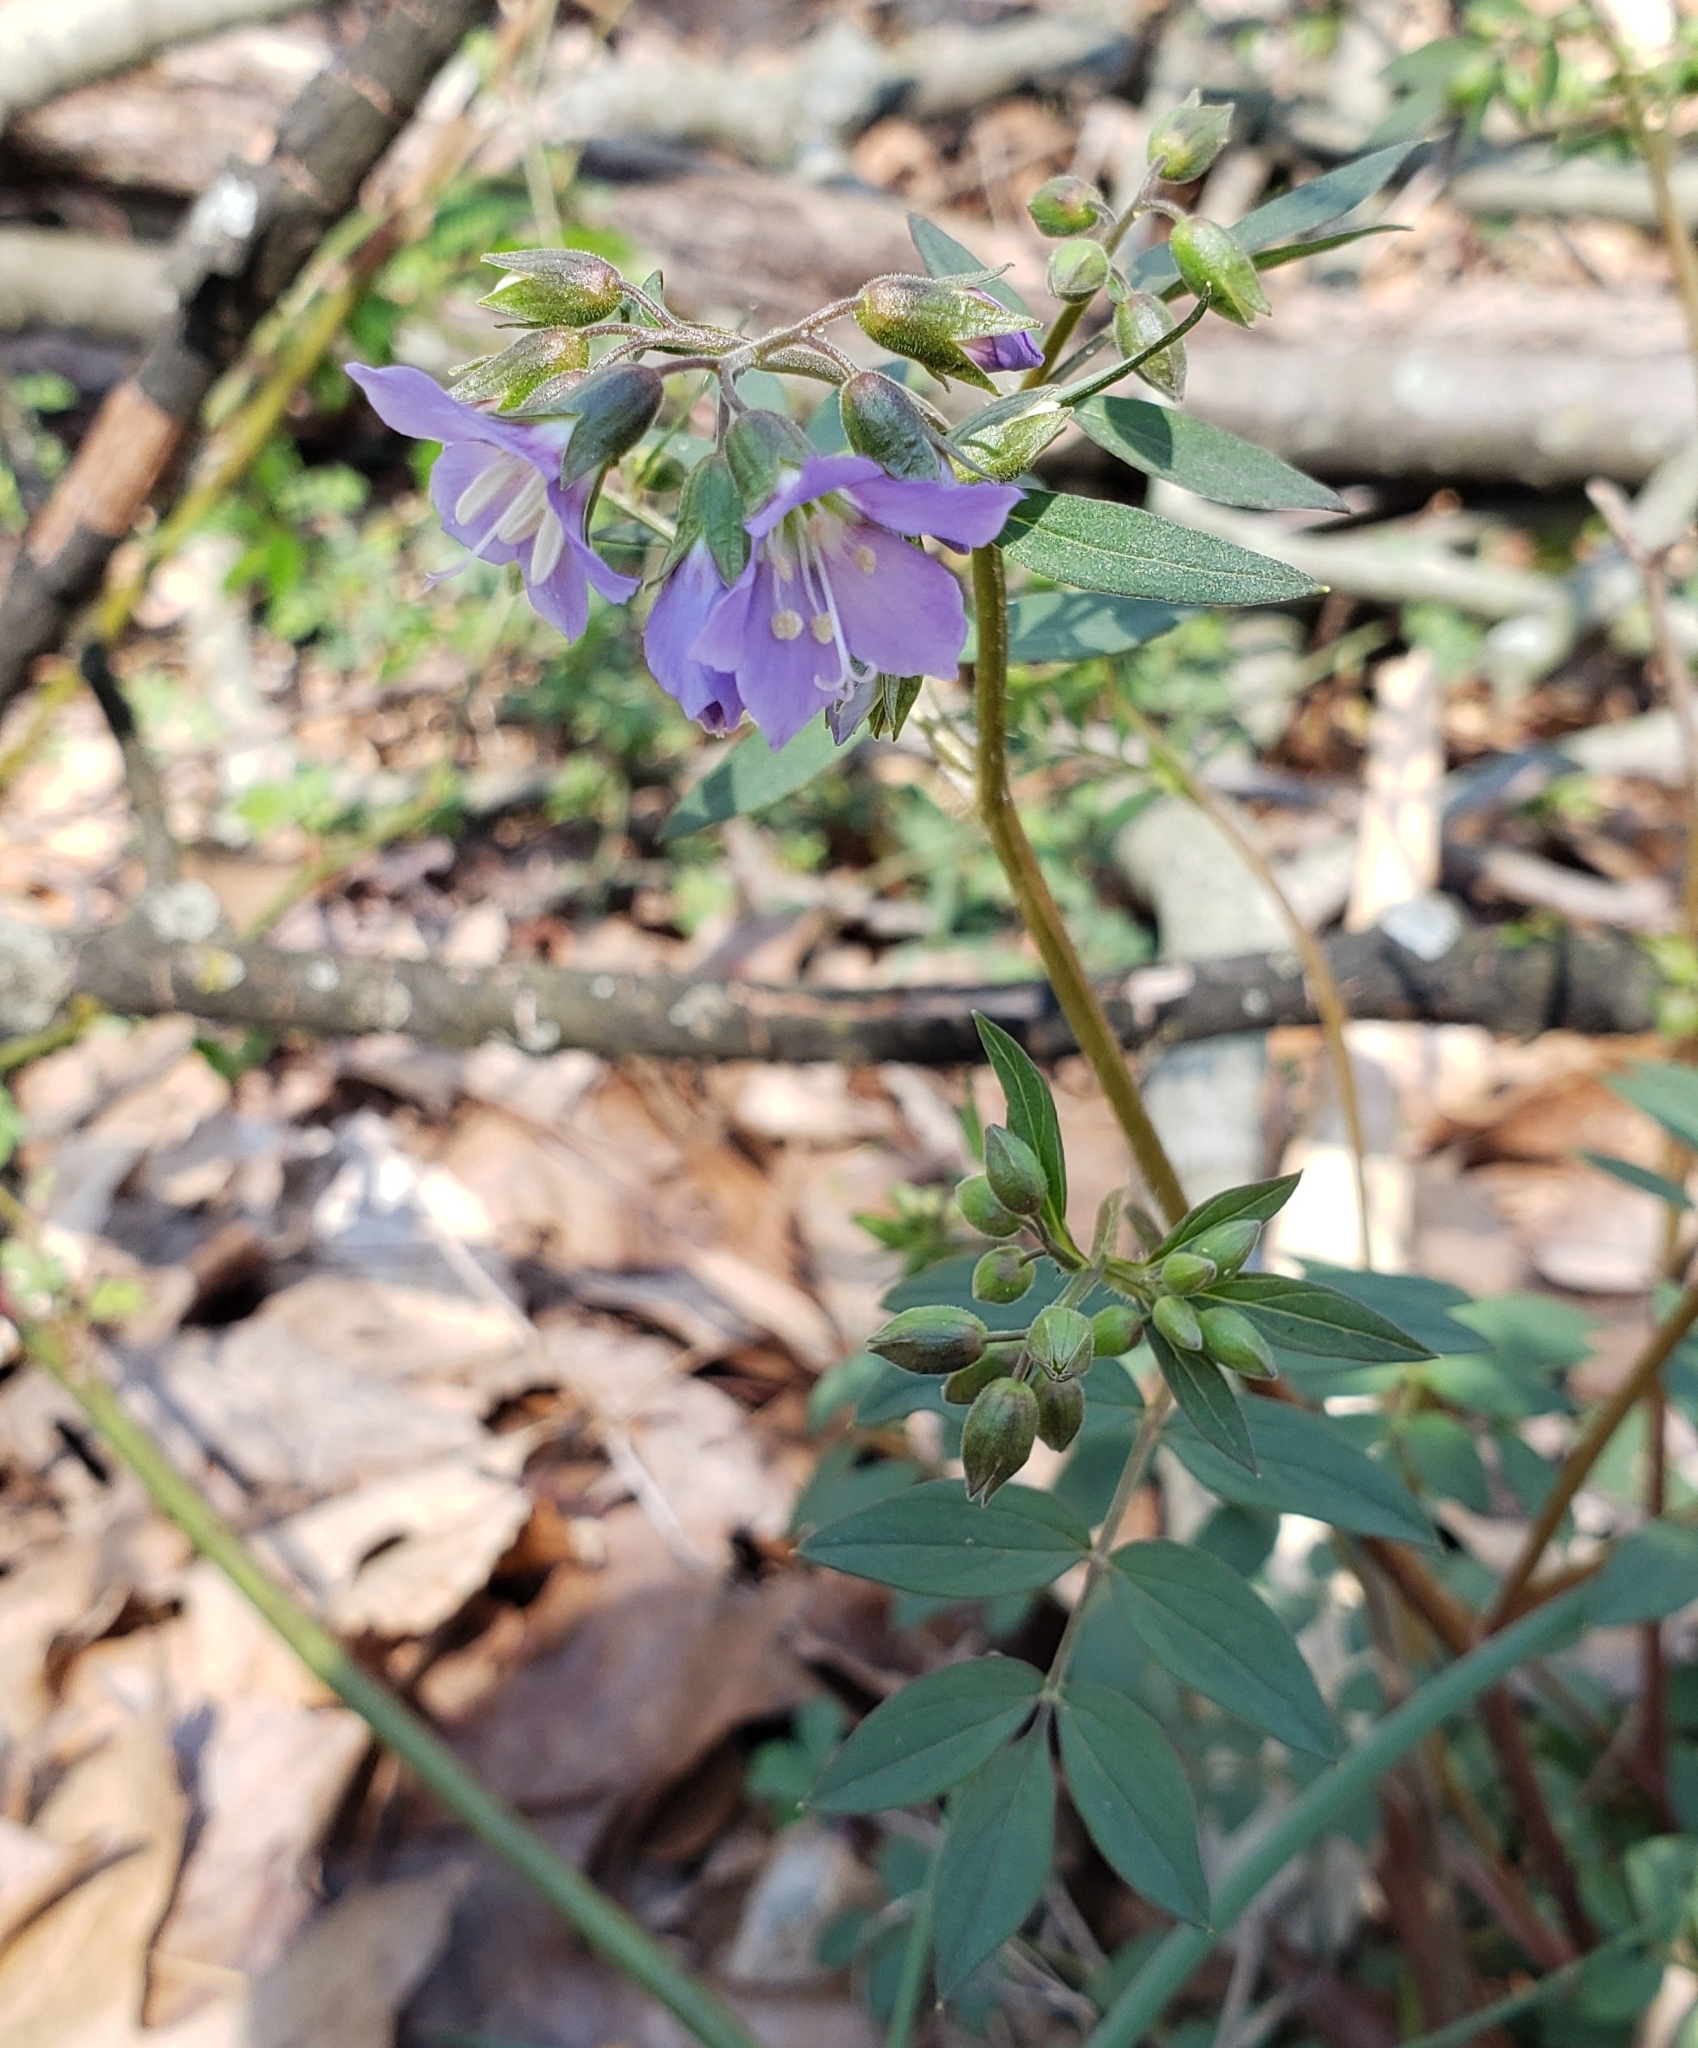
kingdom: Plantae
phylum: Tracheophyta
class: Magnoliopsida
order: Ericales
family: Polemoniaceae
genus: Polemonium
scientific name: Polemonium reptans
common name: Creeping jacob's-ladder
